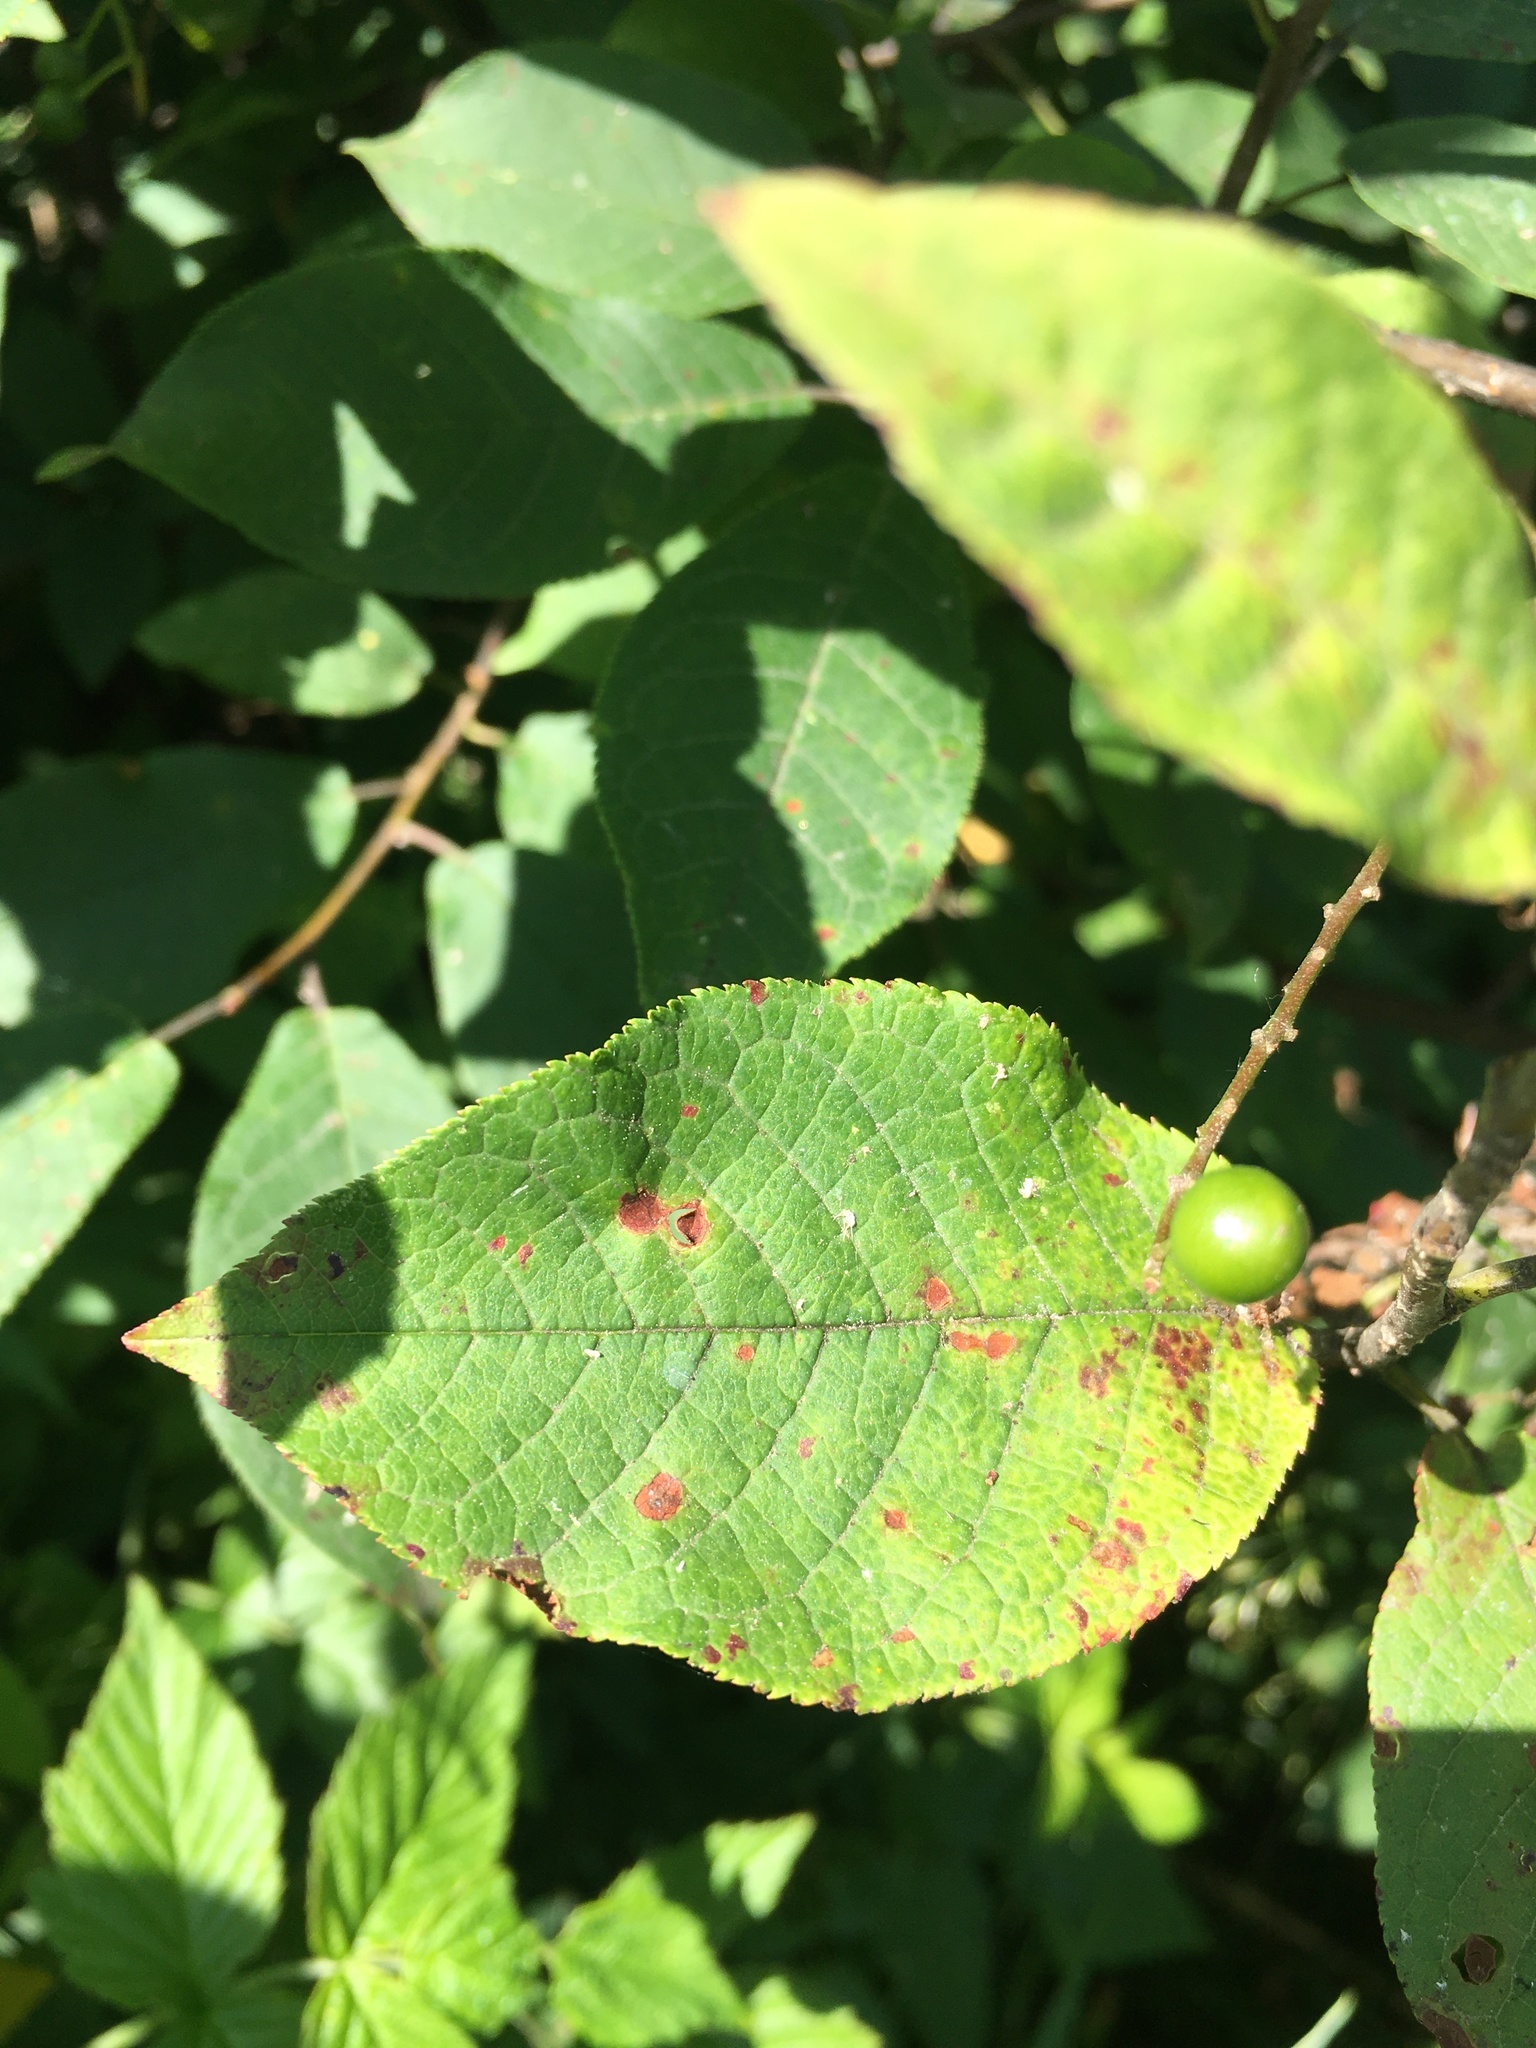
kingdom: Plantae
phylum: Tracheophyta
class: Magnoliopsida
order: Rosales
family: Rosaceae
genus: Prunus
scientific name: Prunus padus
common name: Bird cherry
